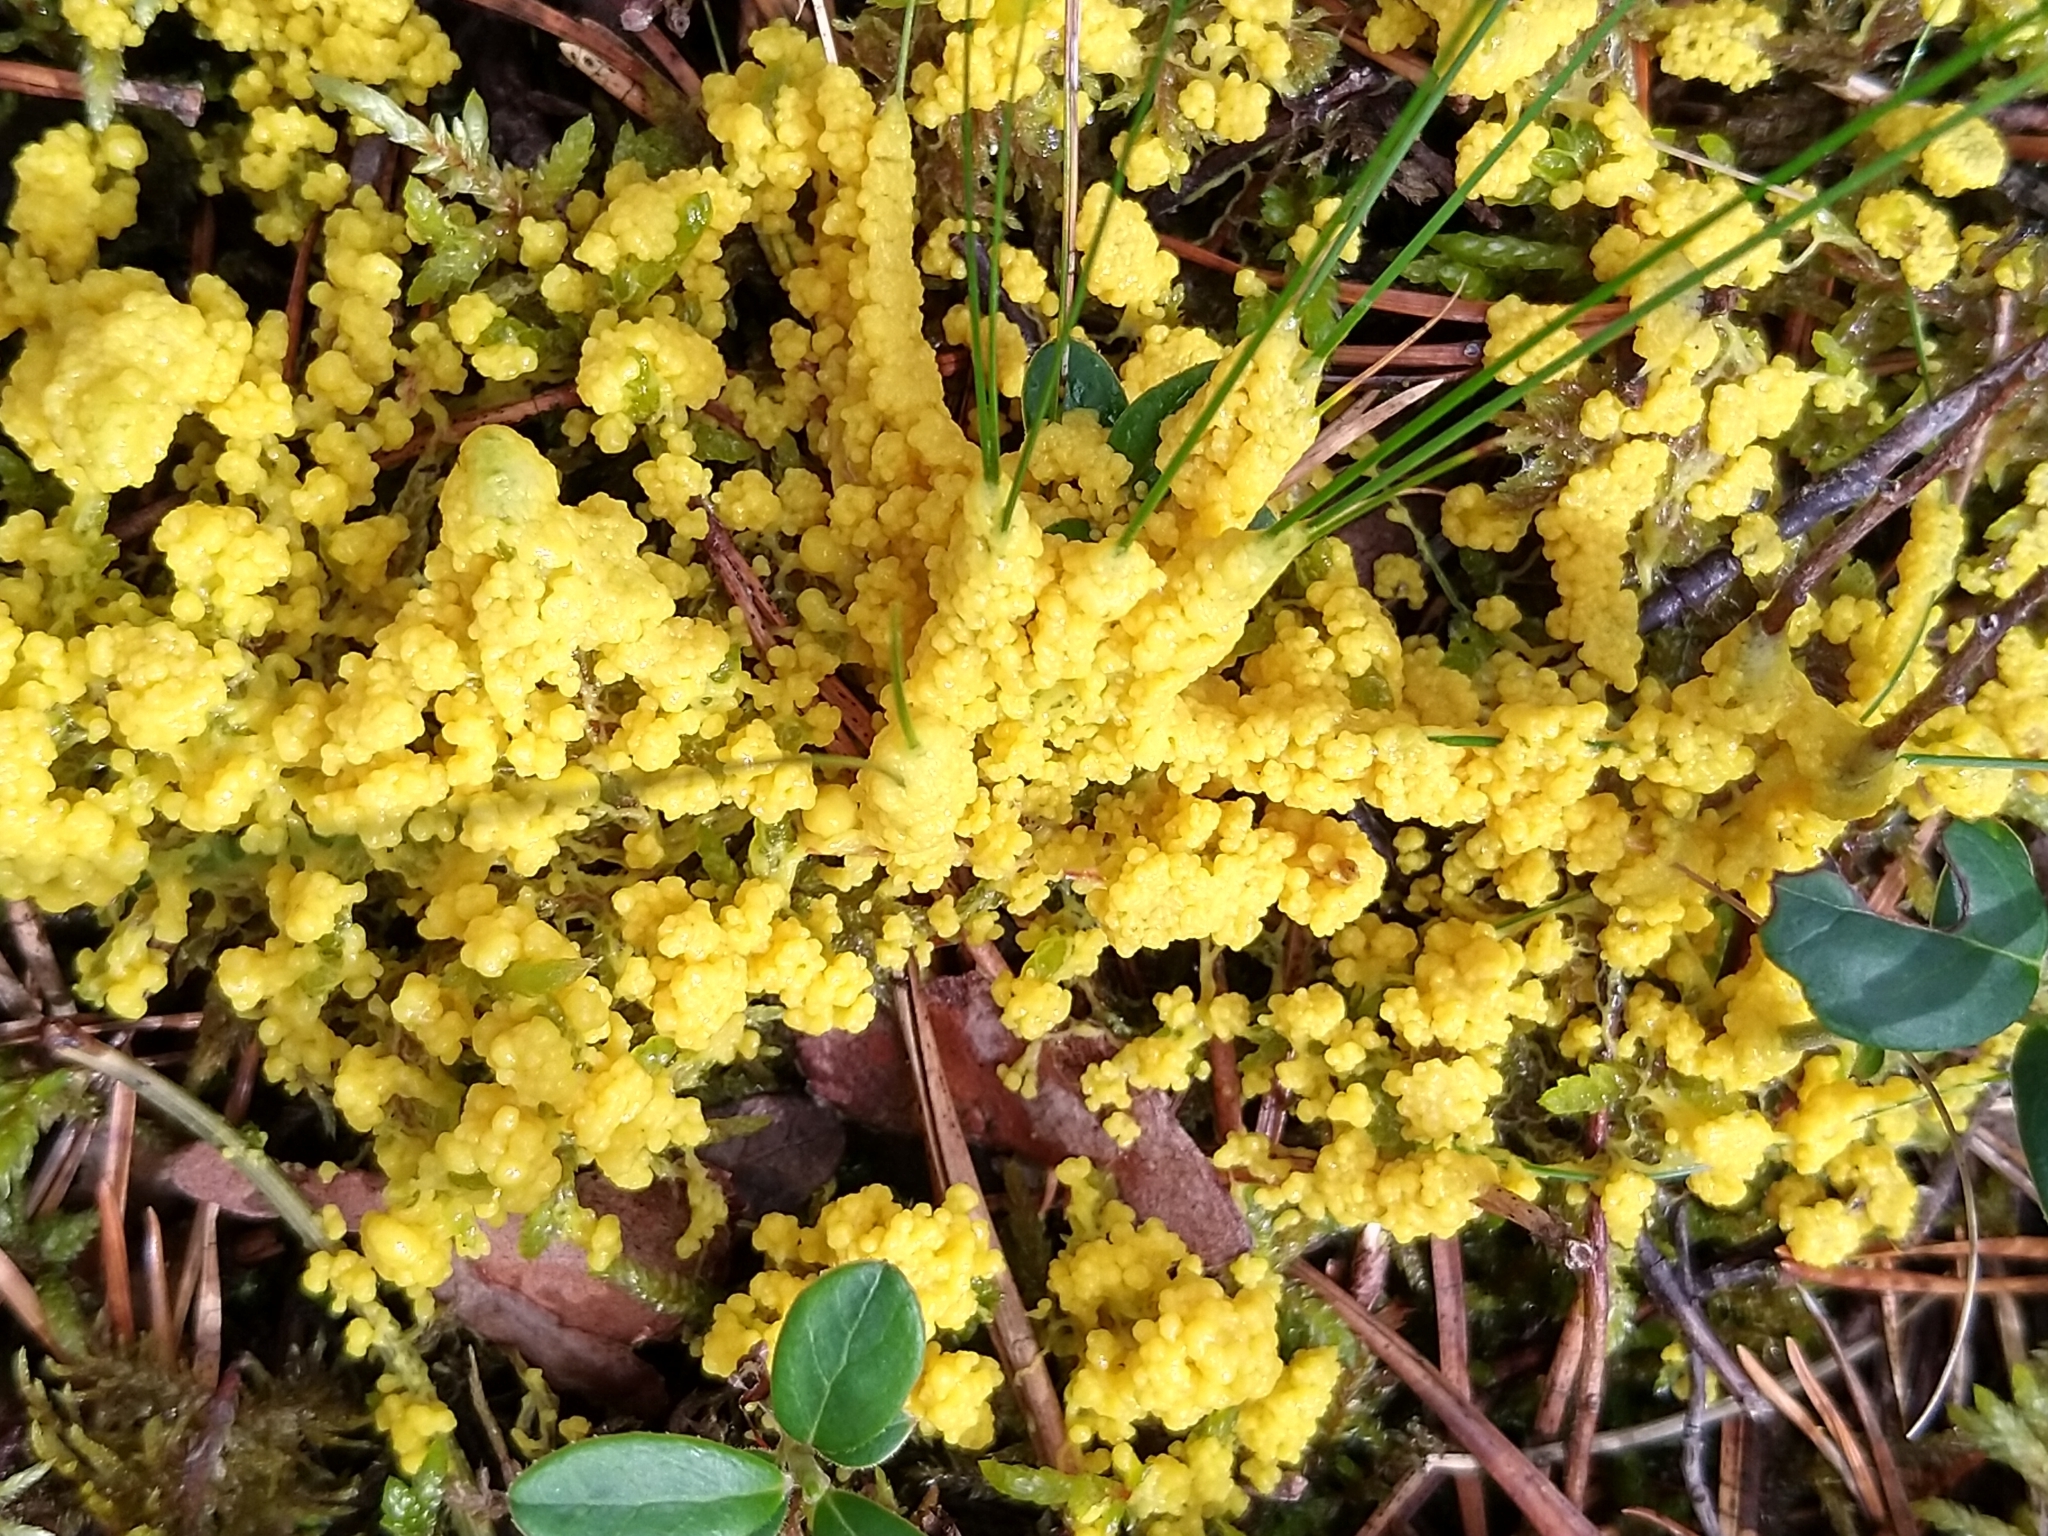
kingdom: Protozoa
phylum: Mycetozoa
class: Myxomycetes
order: Physarales
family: Physaraceae
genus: Fuligo
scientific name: Fuligo septica
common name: Dog vomit slime mold
